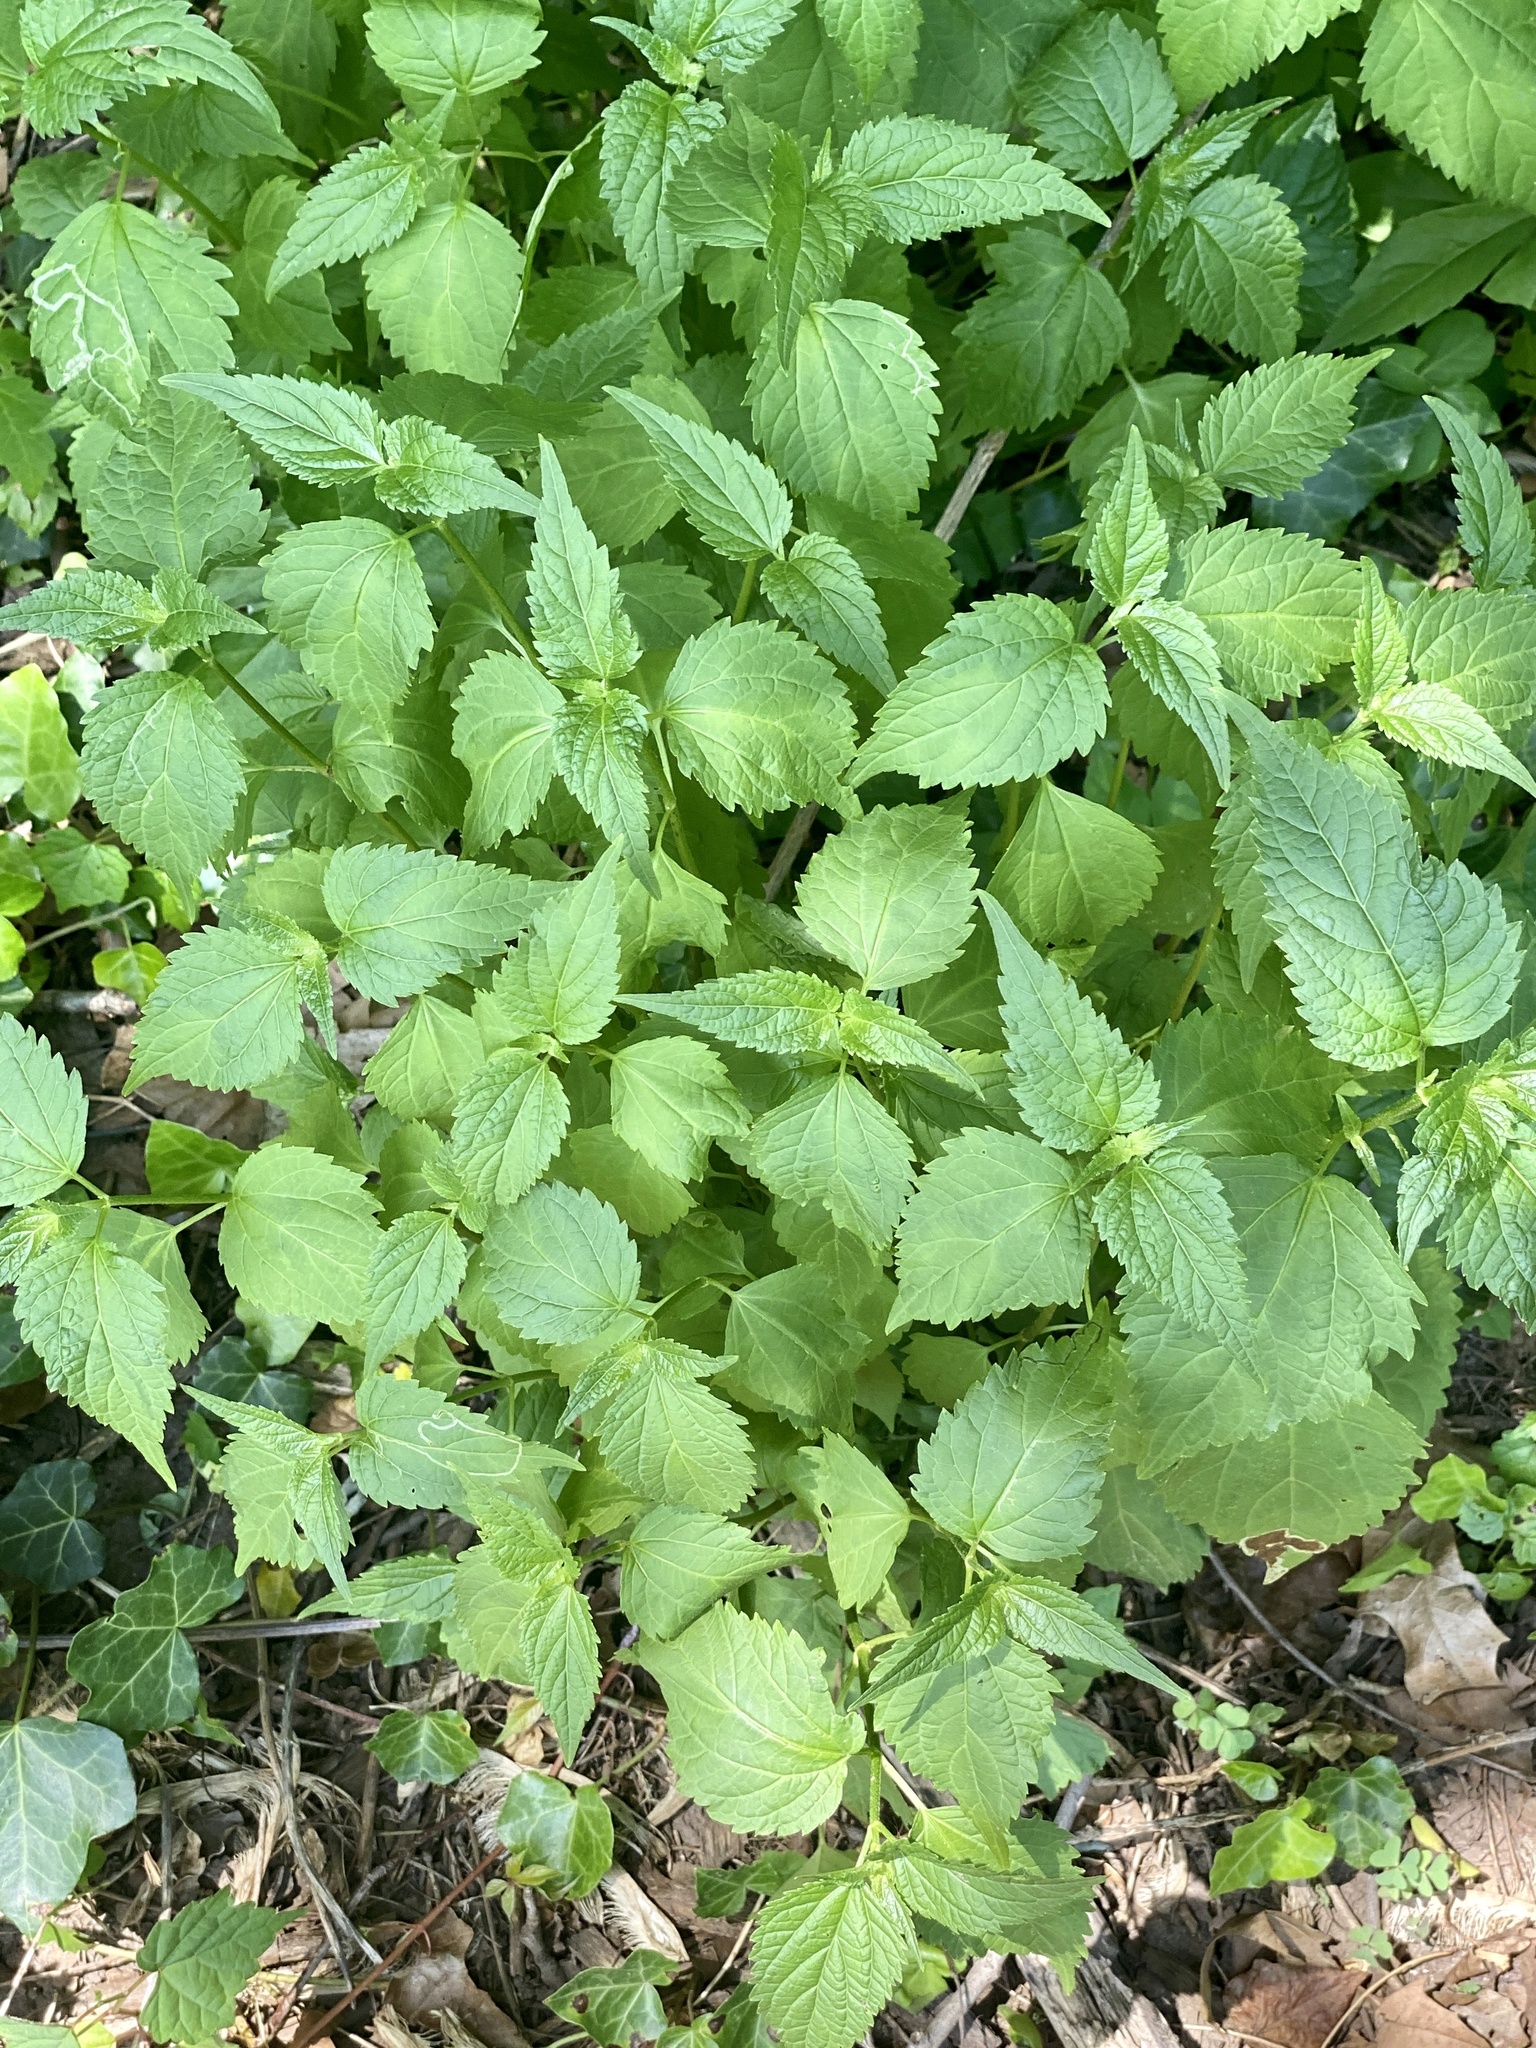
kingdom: Plantae
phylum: Tracheophyta
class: Magnoliopsida
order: Asterales
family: Asteraceae
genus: Ageratina
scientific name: Ageratina altissima
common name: White snakeroot
